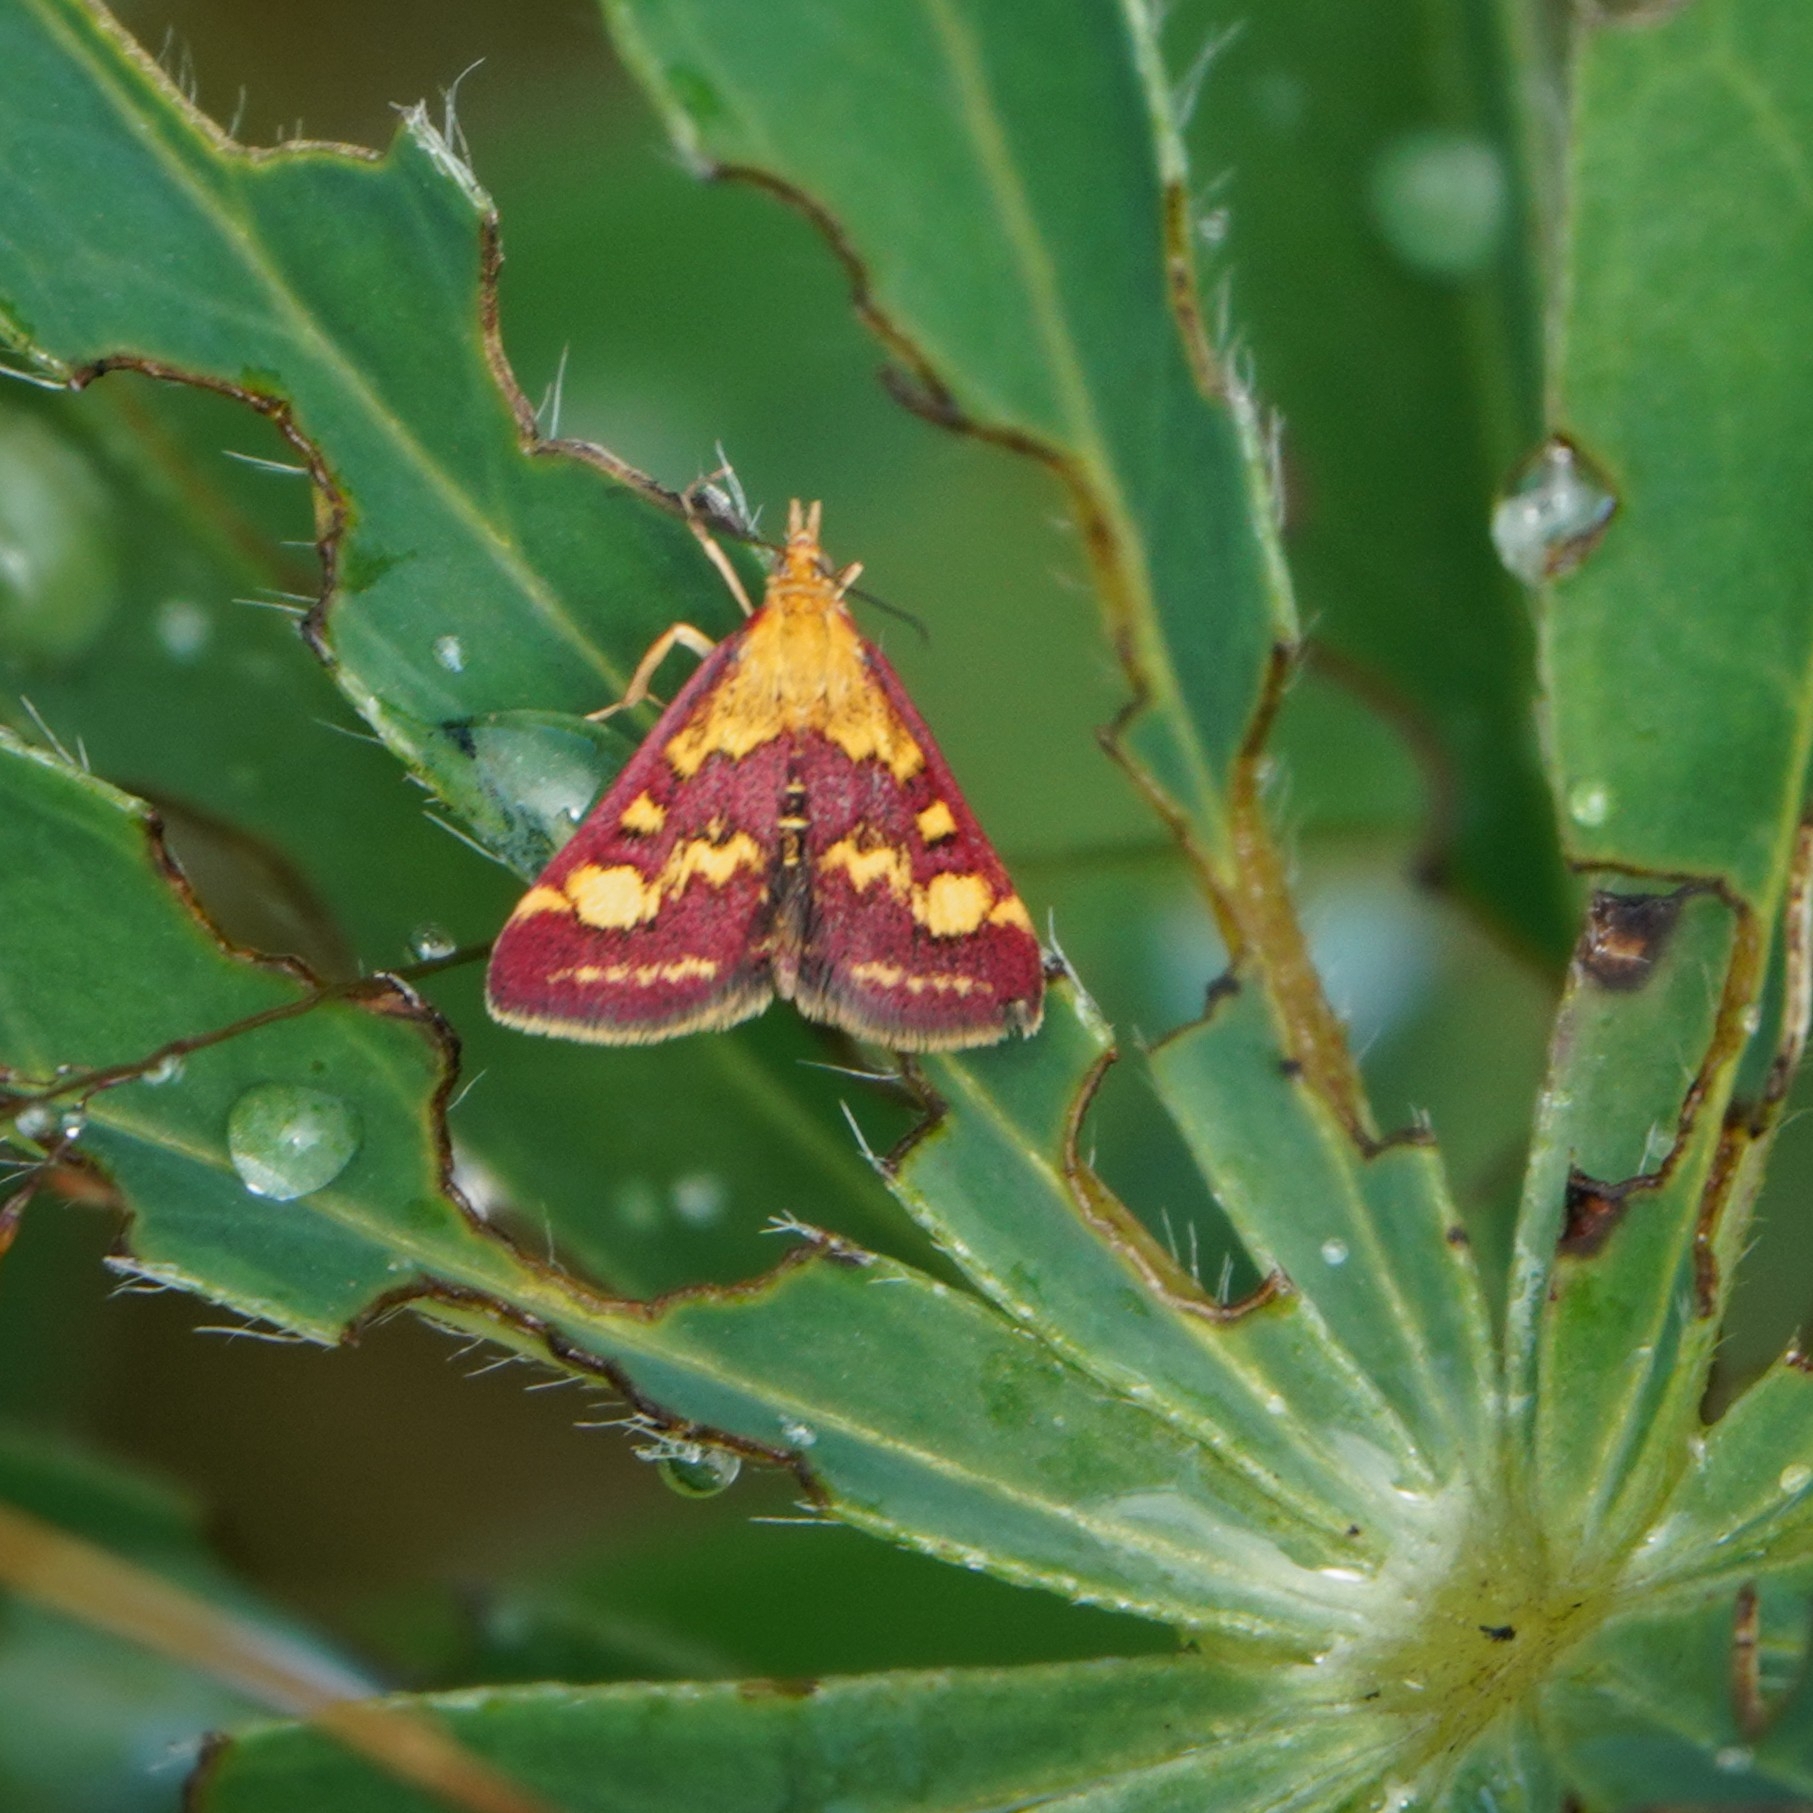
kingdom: Animalia
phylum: Arthropoda
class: Insecta
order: Lepidoptera
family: Crambidae
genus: Pyrausta
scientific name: Pyrausta purpuralis
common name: Common purple & gold
